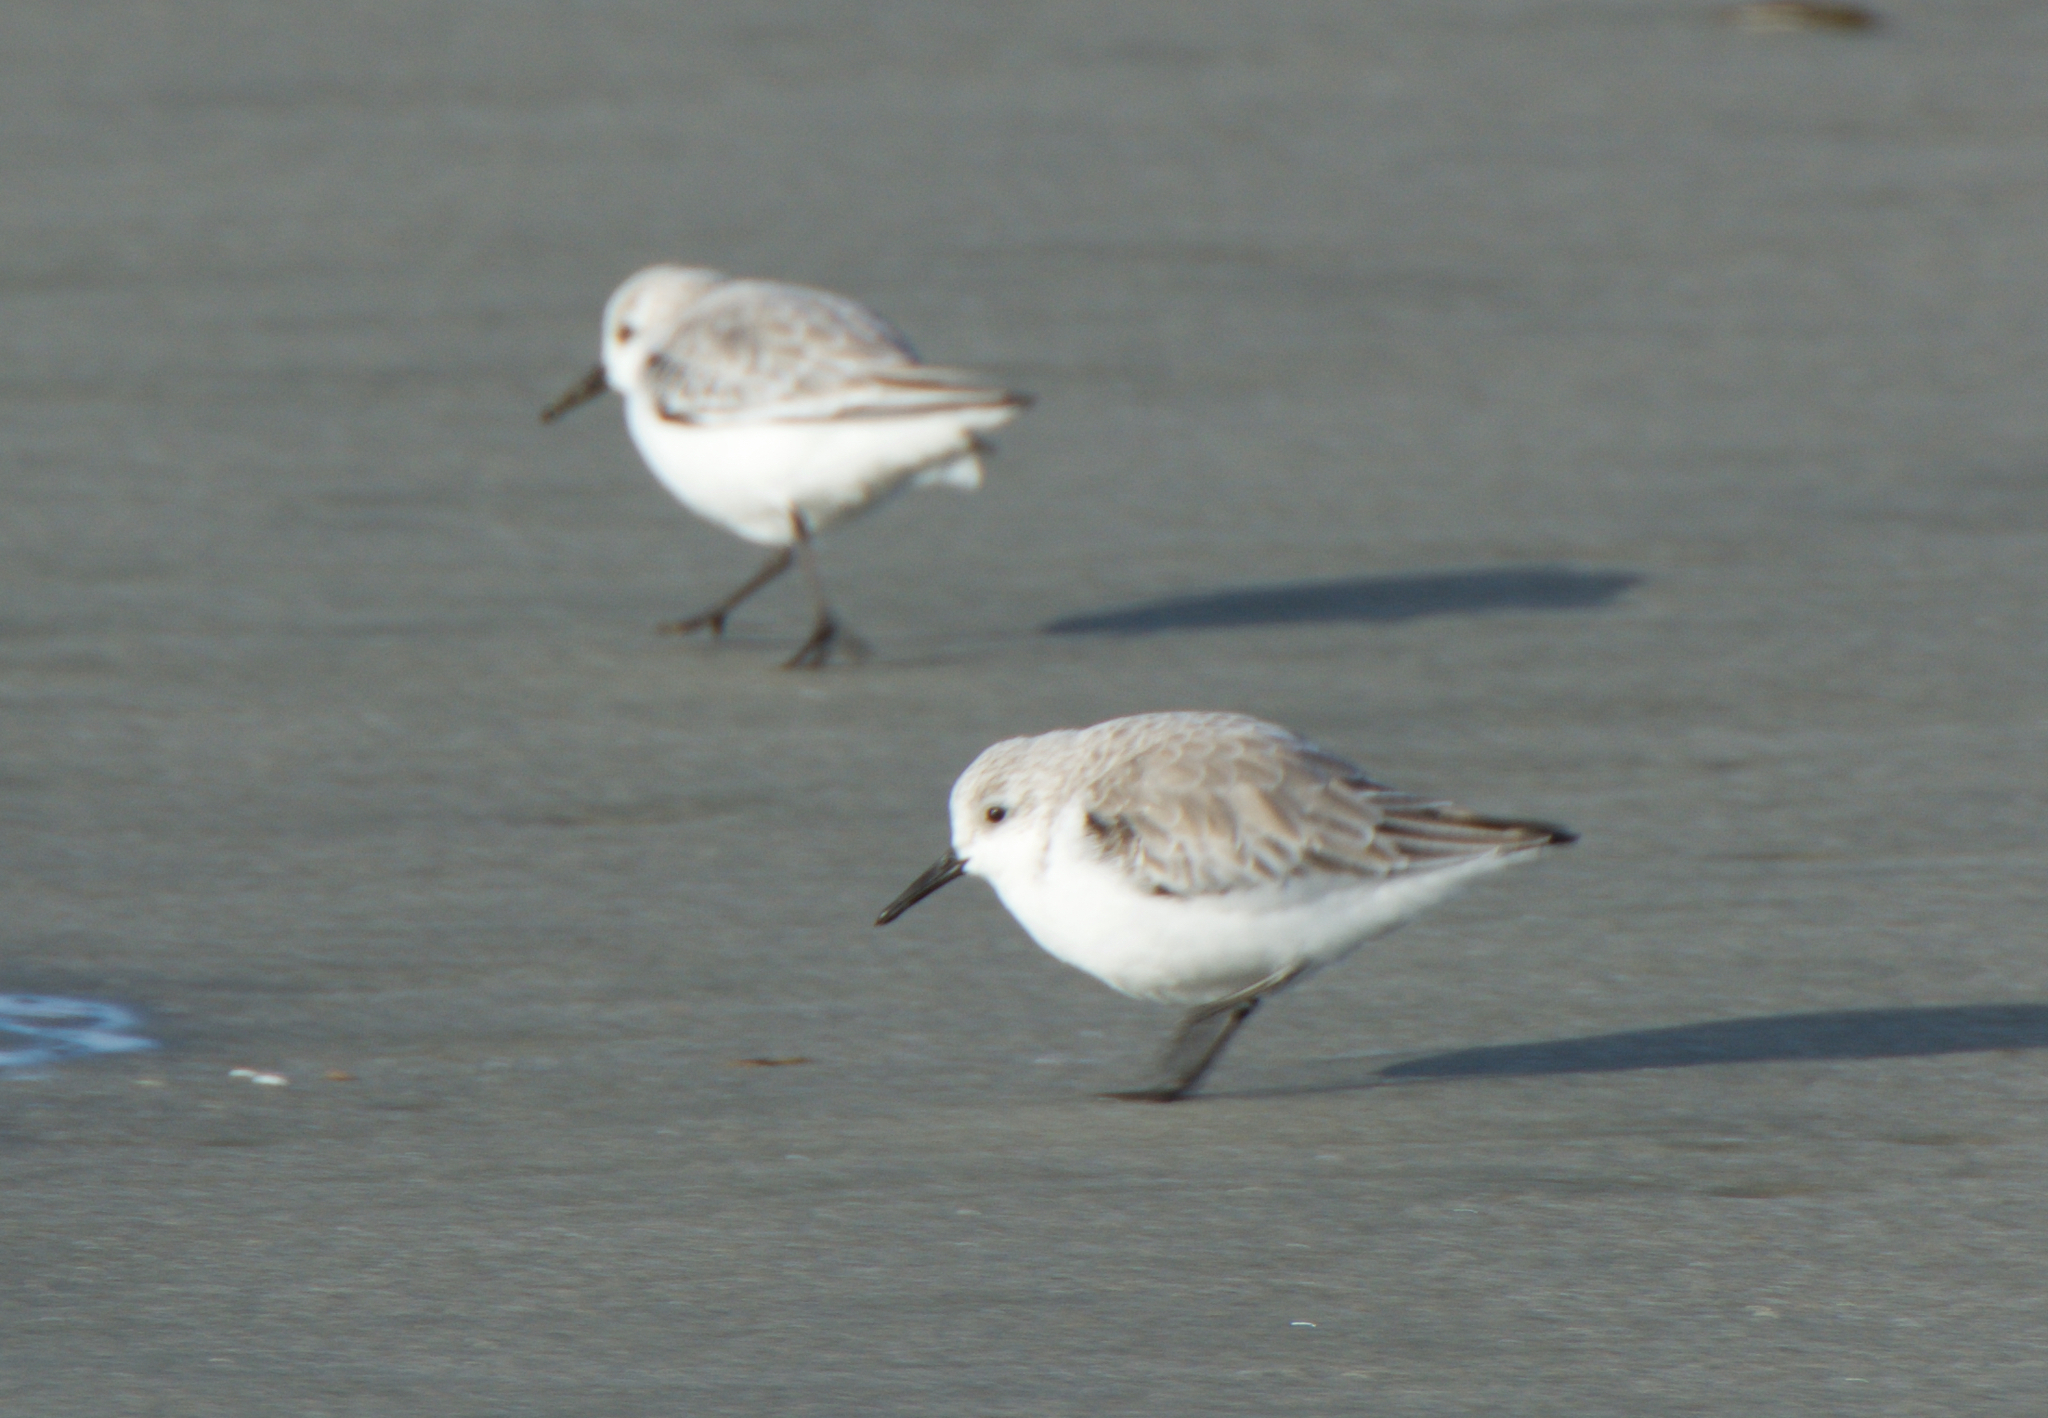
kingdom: Animalia
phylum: Chordata
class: Aves
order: Charadriiformes
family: Scolopacidae
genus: Calidris
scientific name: Calidris alba
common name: Sanderling
